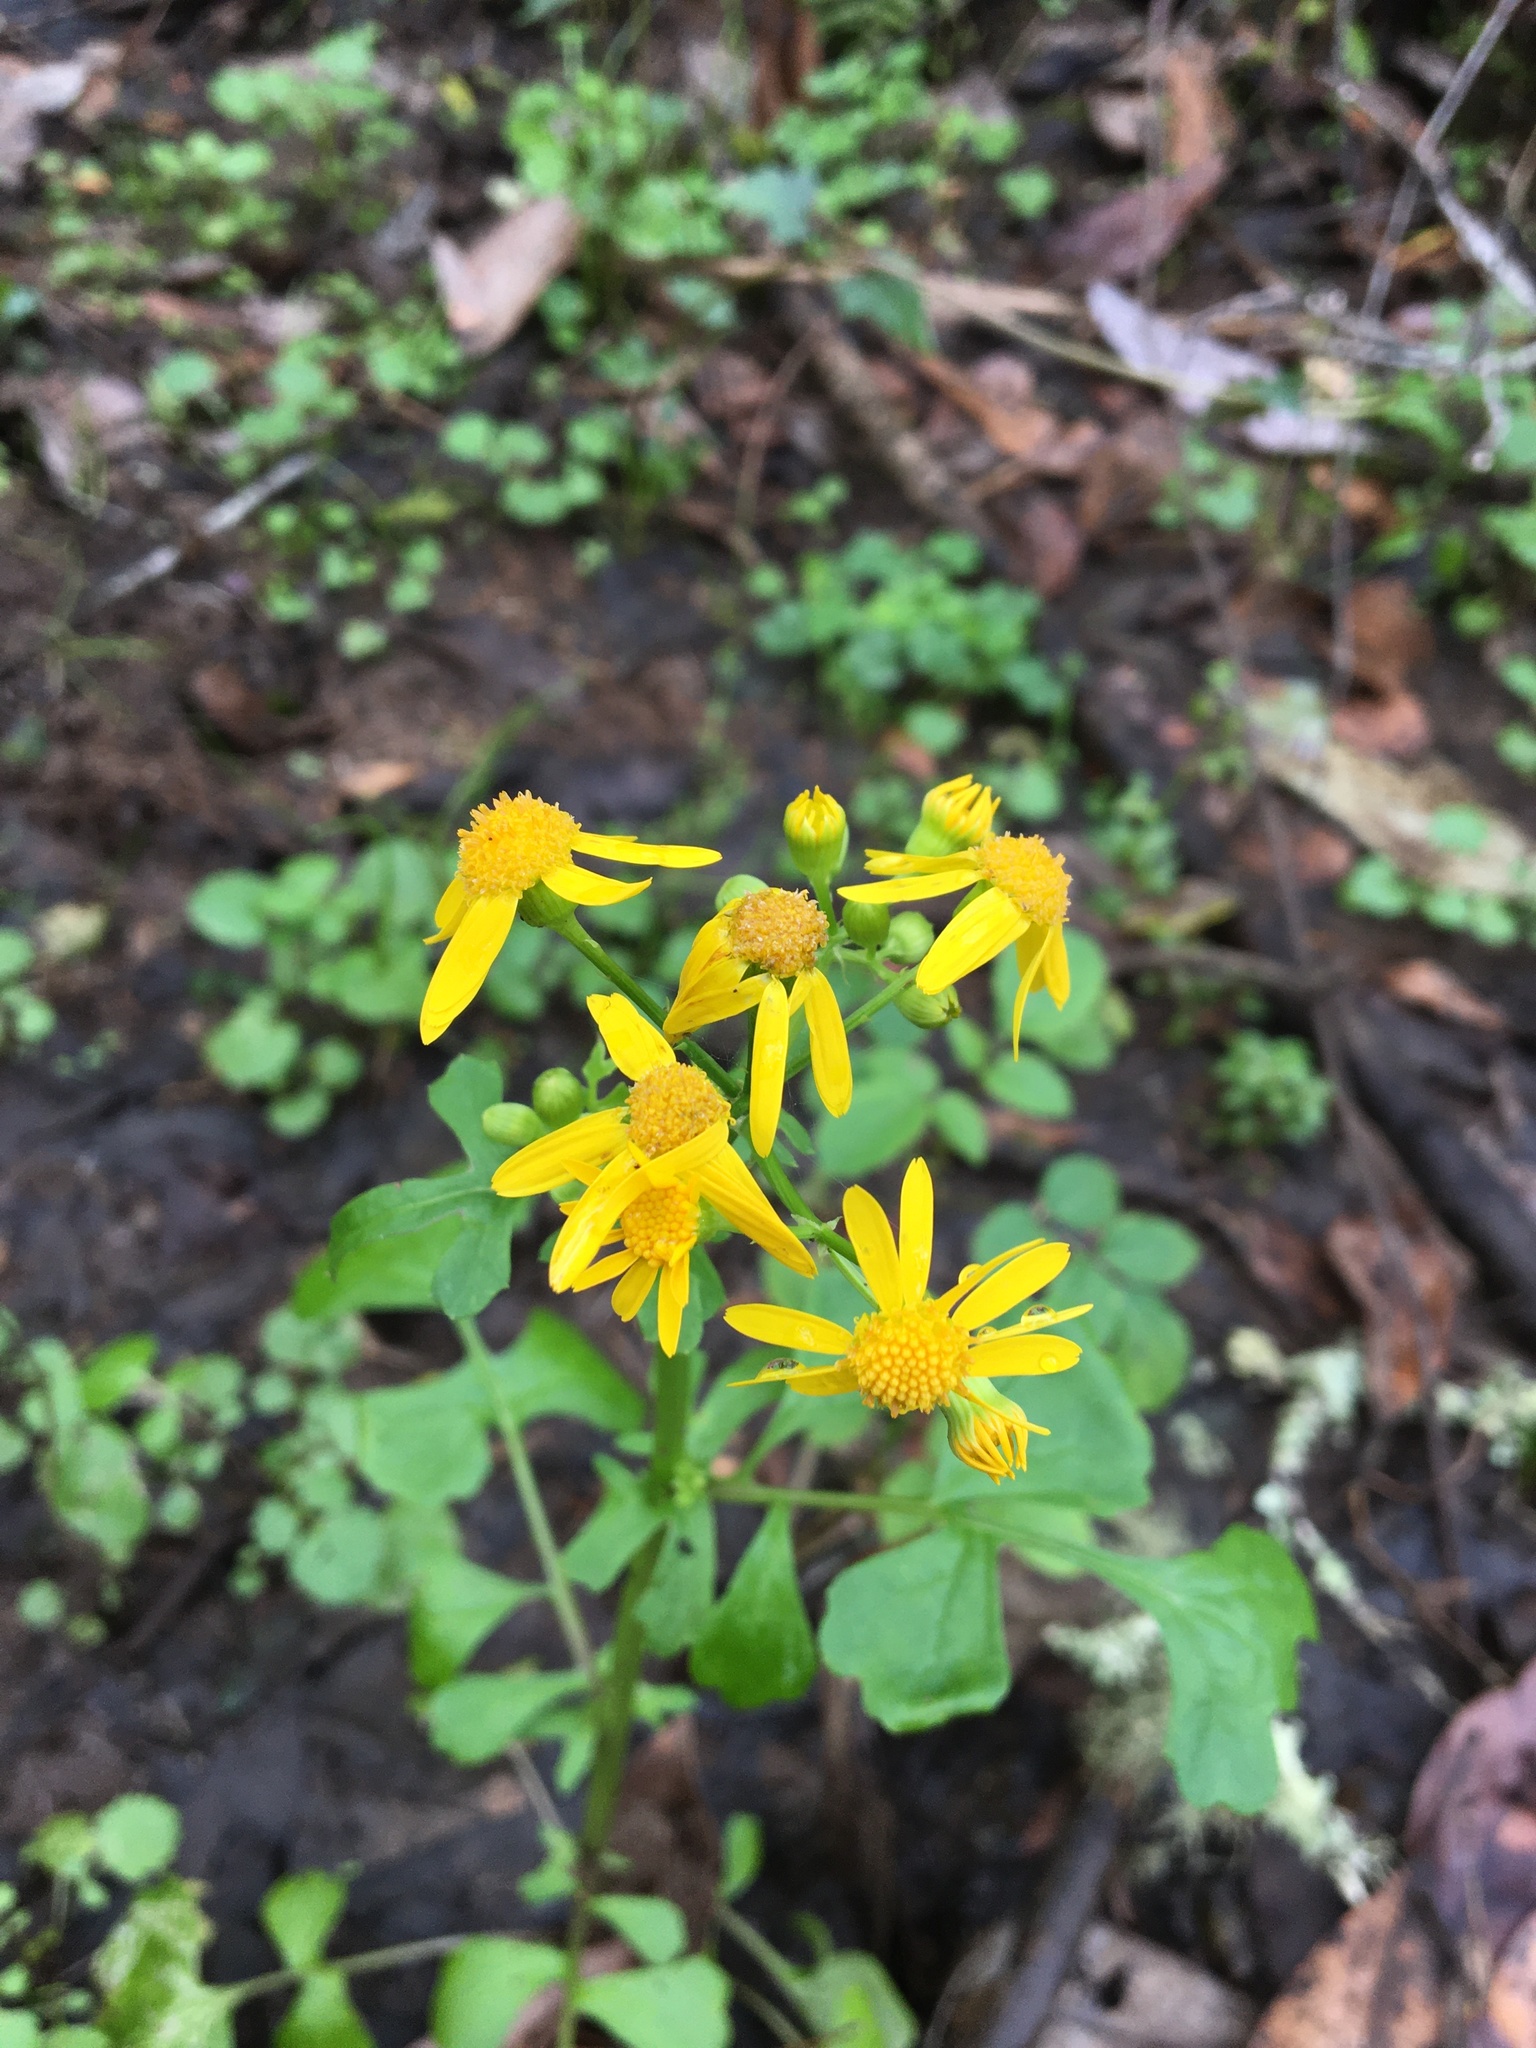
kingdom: Plantae
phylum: Tracheophyta
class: Magnoliopsida
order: Asterales
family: Asteraceae
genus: Packera
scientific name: Packera glabella
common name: Butterweed
